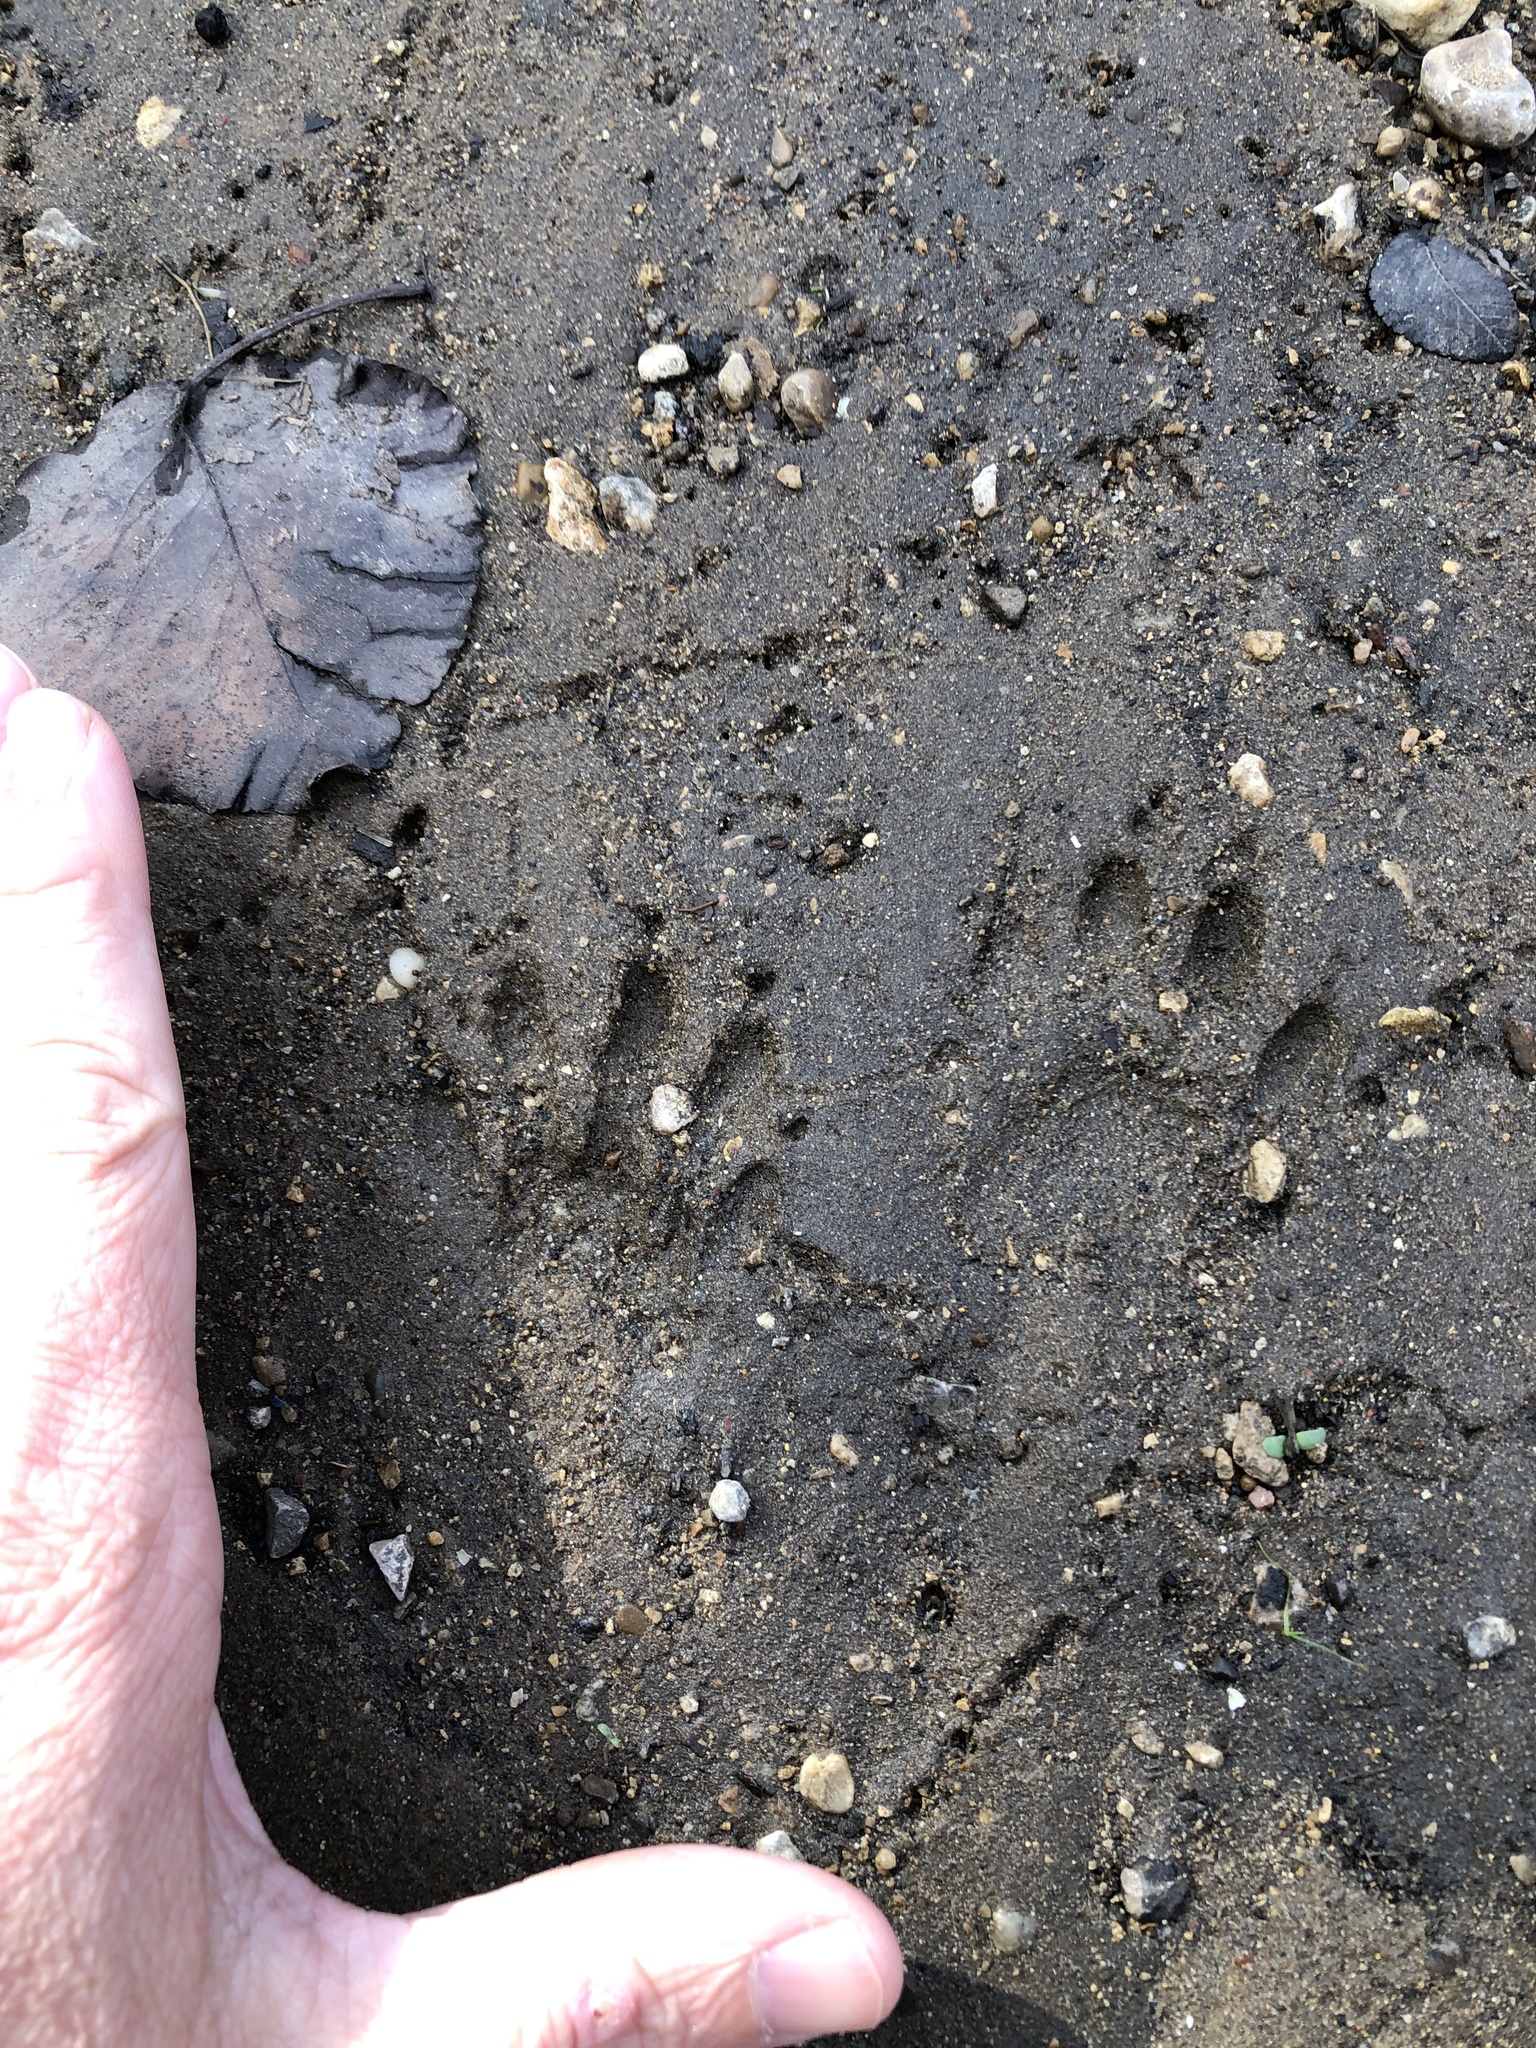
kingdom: Animalia
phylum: Chordata
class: Mammalia
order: Carnivora
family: Procyonidae
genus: Procyon
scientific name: Procyon lotor
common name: Raccoon
